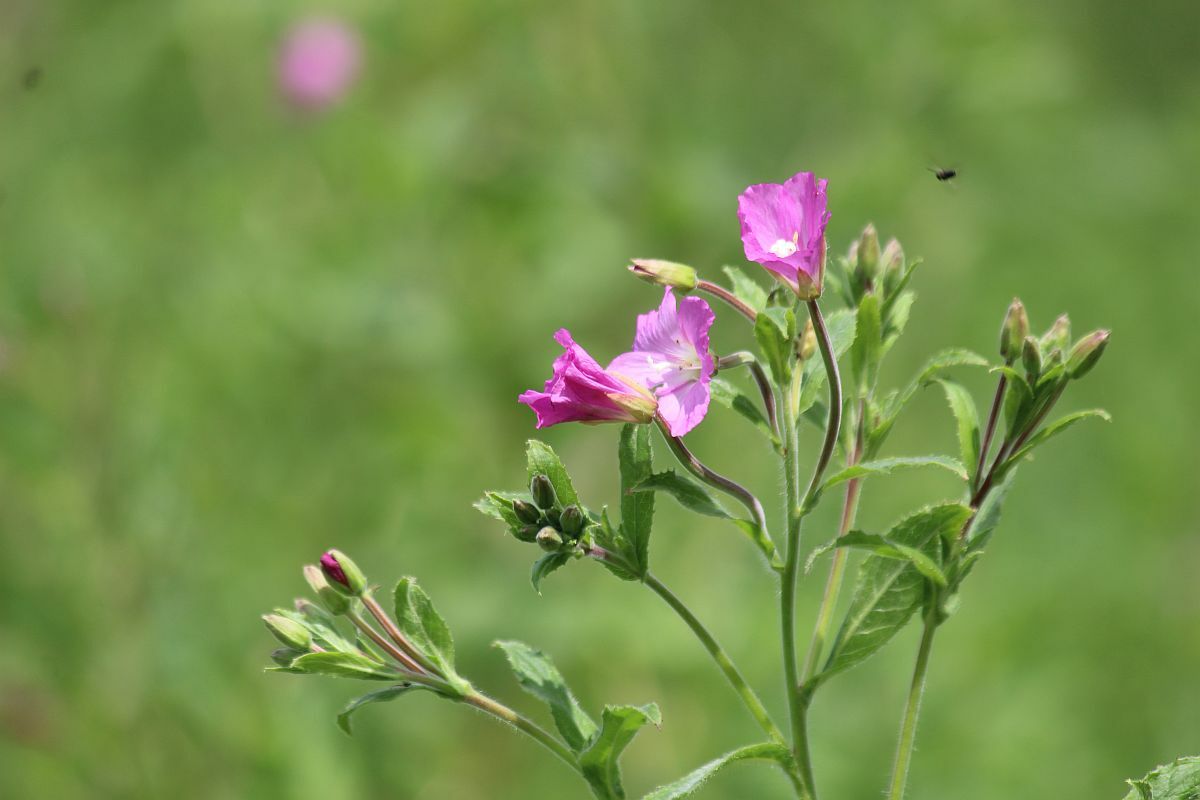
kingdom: Plantae
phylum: Tracheophyta
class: Magnoliopsida
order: Myrtales
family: Onagraceae
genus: Epilobium
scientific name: Epilobium hirsutum
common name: Great willowherb
